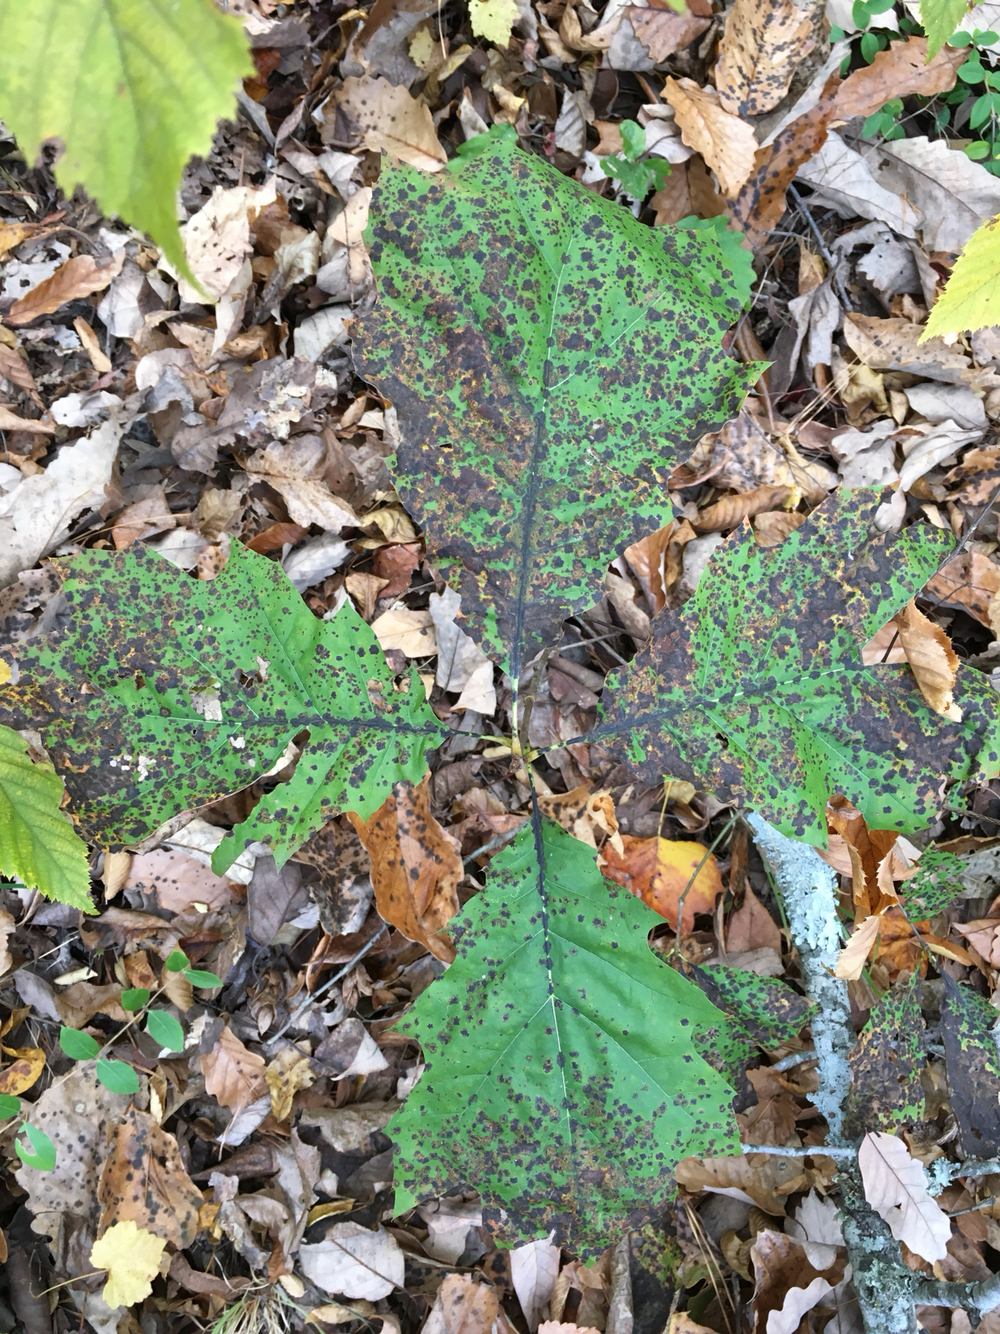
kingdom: Plantae
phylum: Tracheophyta
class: Magnoliopsida
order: Fagales
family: Fagaceae
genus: Quercus
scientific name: Quercus rubra
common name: Red oak
